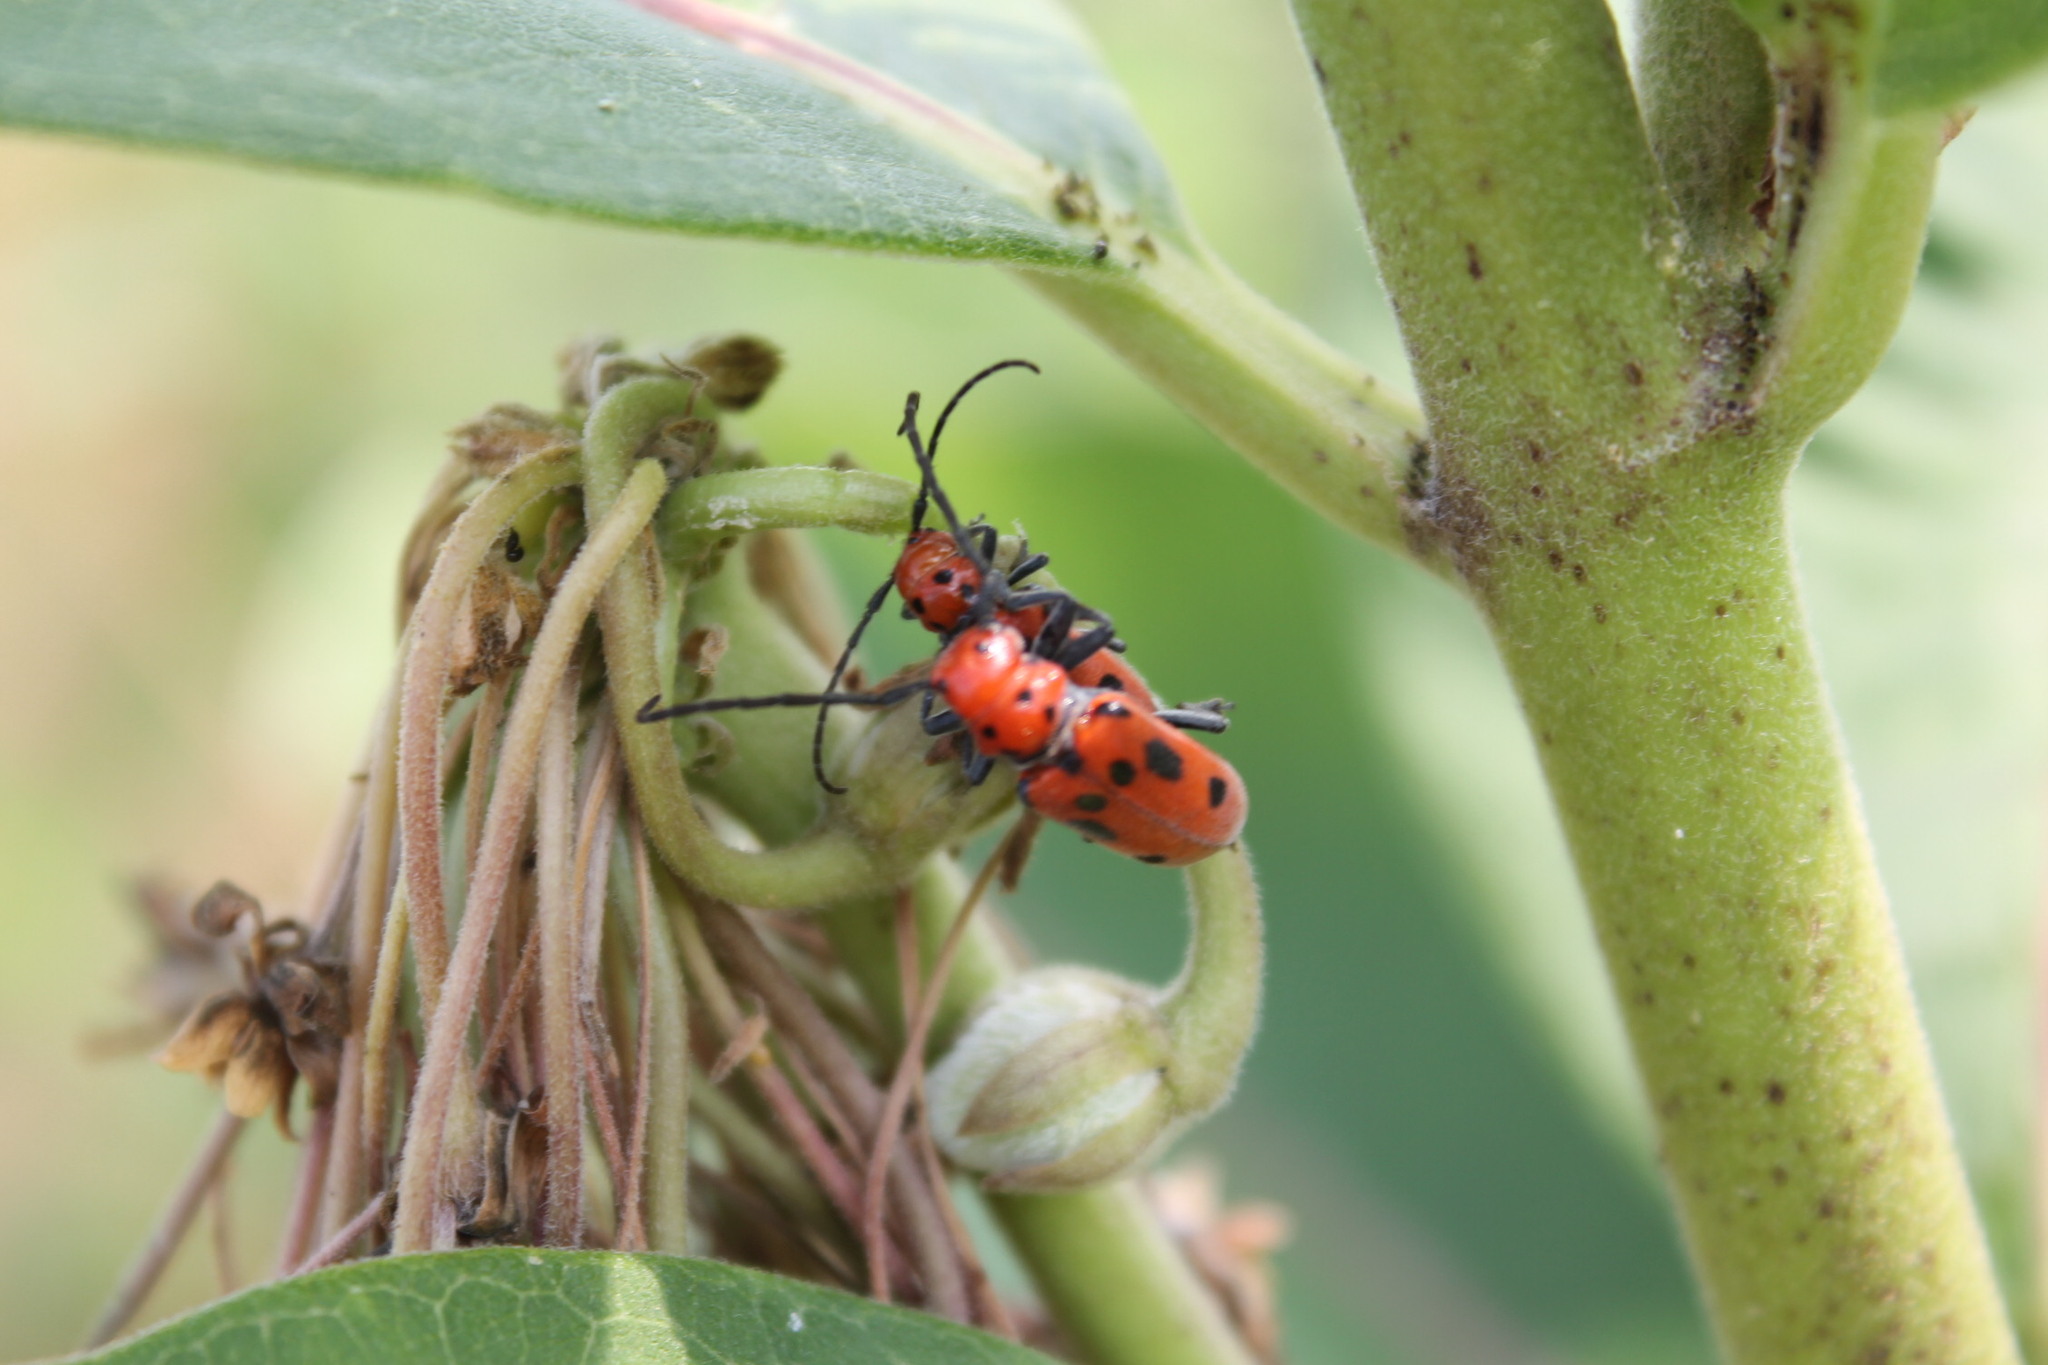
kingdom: Animalia
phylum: Arthropoda
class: Insecta
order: Coleoptera
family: Cerambycidae
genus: Tetraopes
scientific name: Tetraopes tetrophthalmus
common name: Red milkweed beetle
